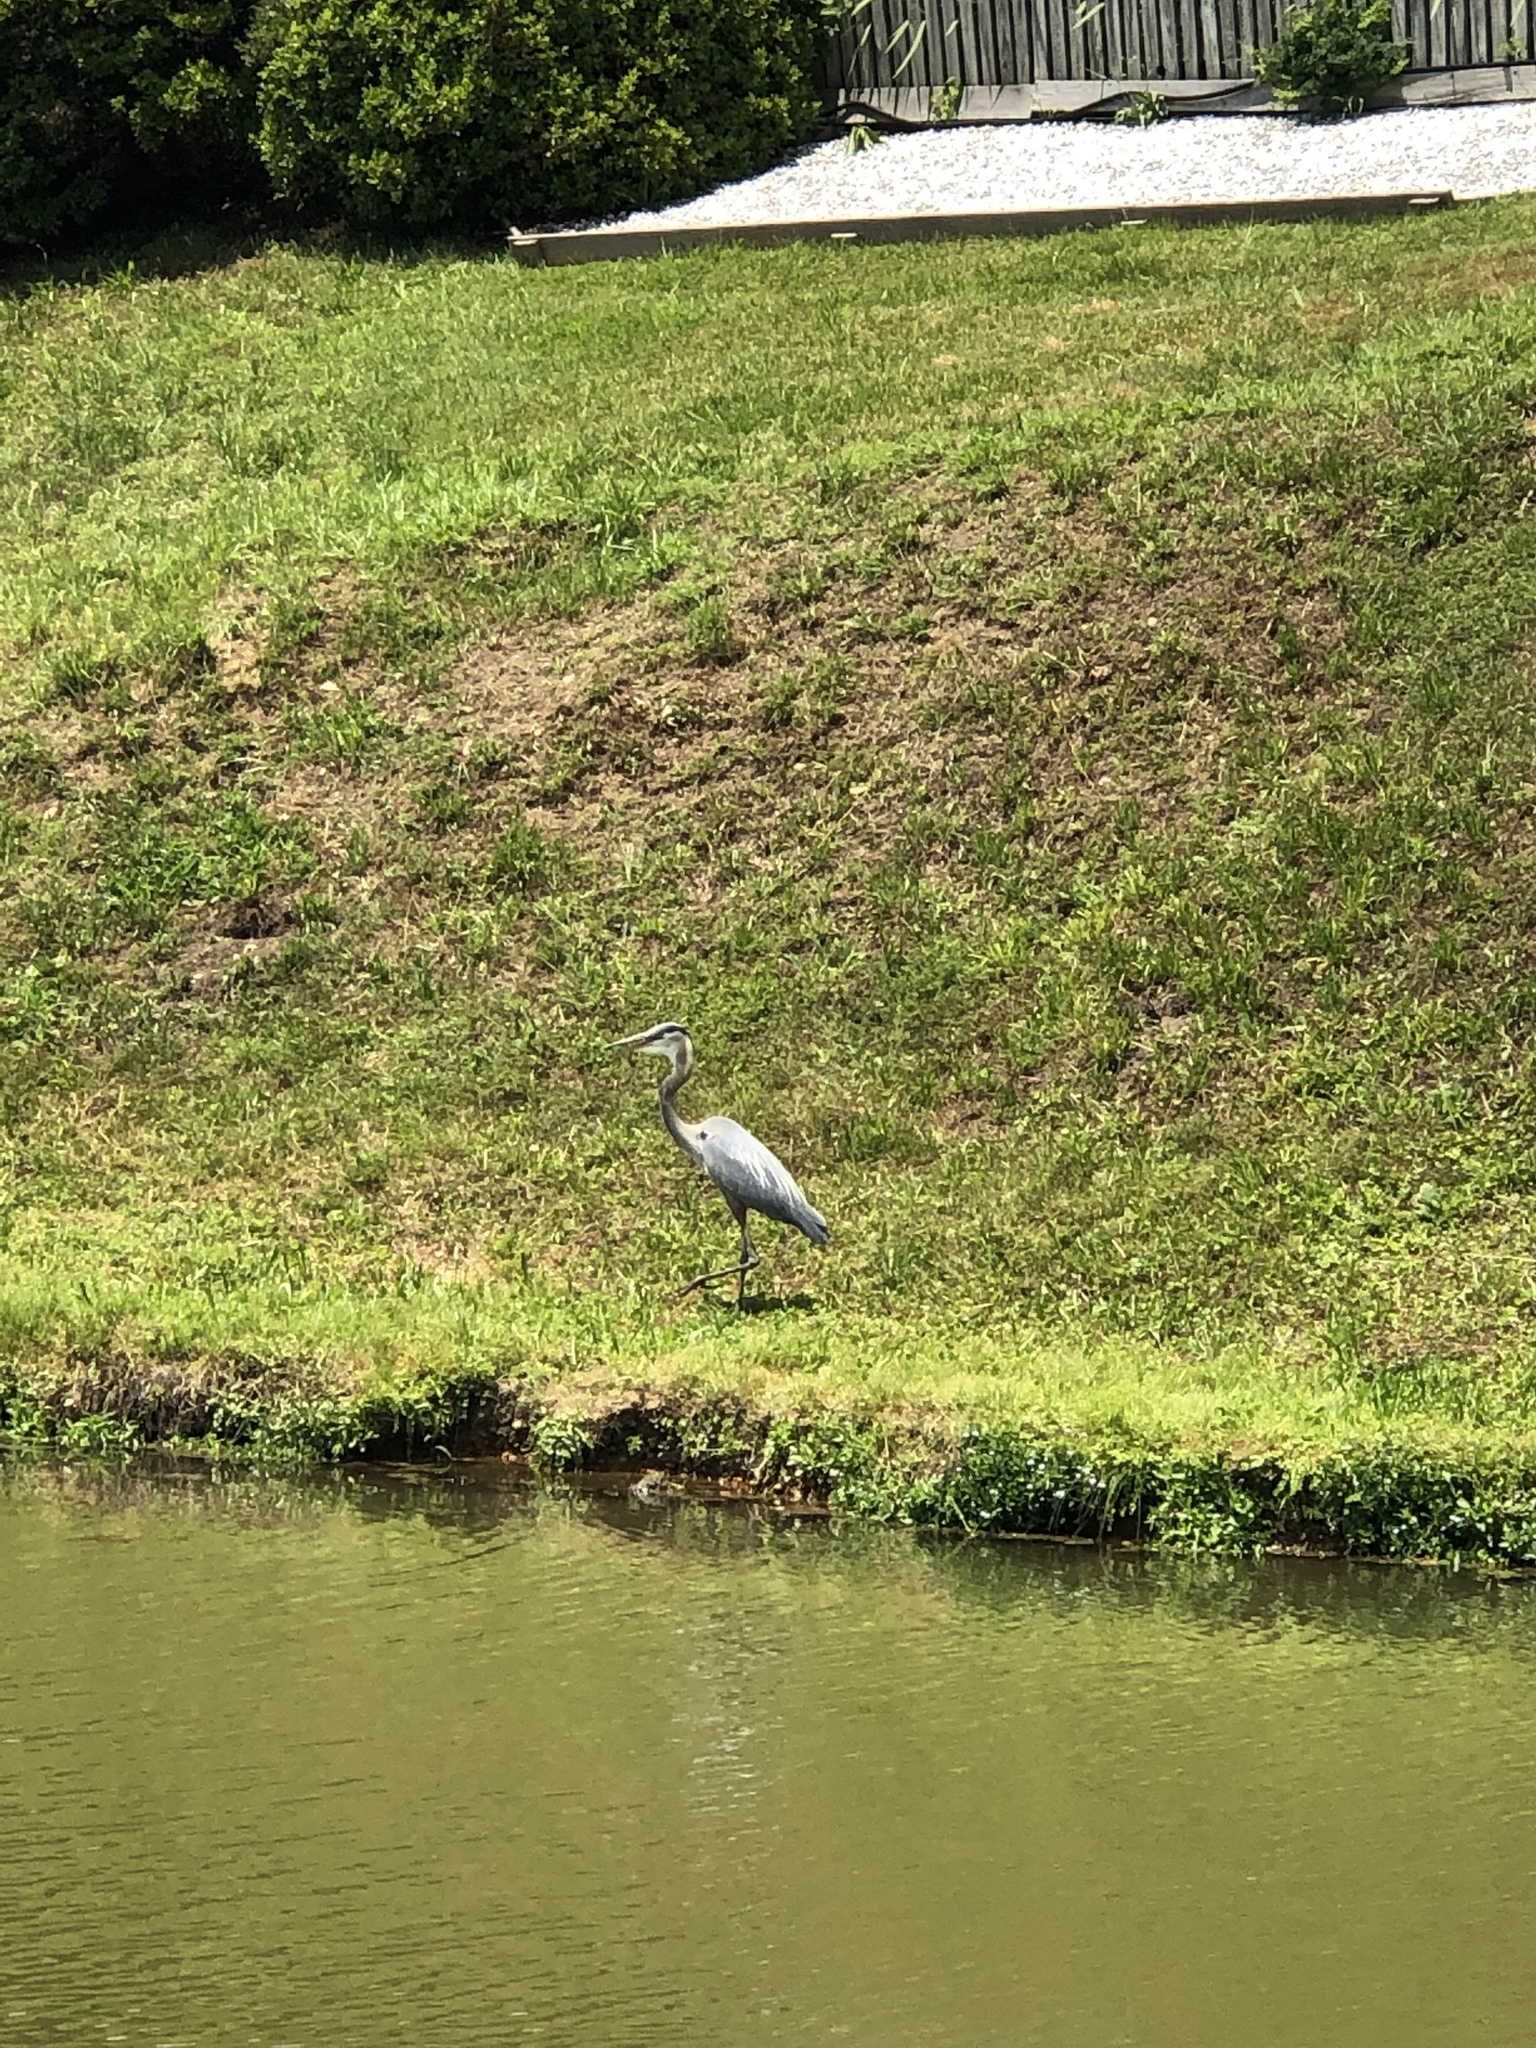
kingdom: Animalia
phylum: Chordata
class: Aves
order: Pelecaniformes
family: Ardeidae
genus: Ardea
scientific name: Ardea herodias
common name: Great blue heron
